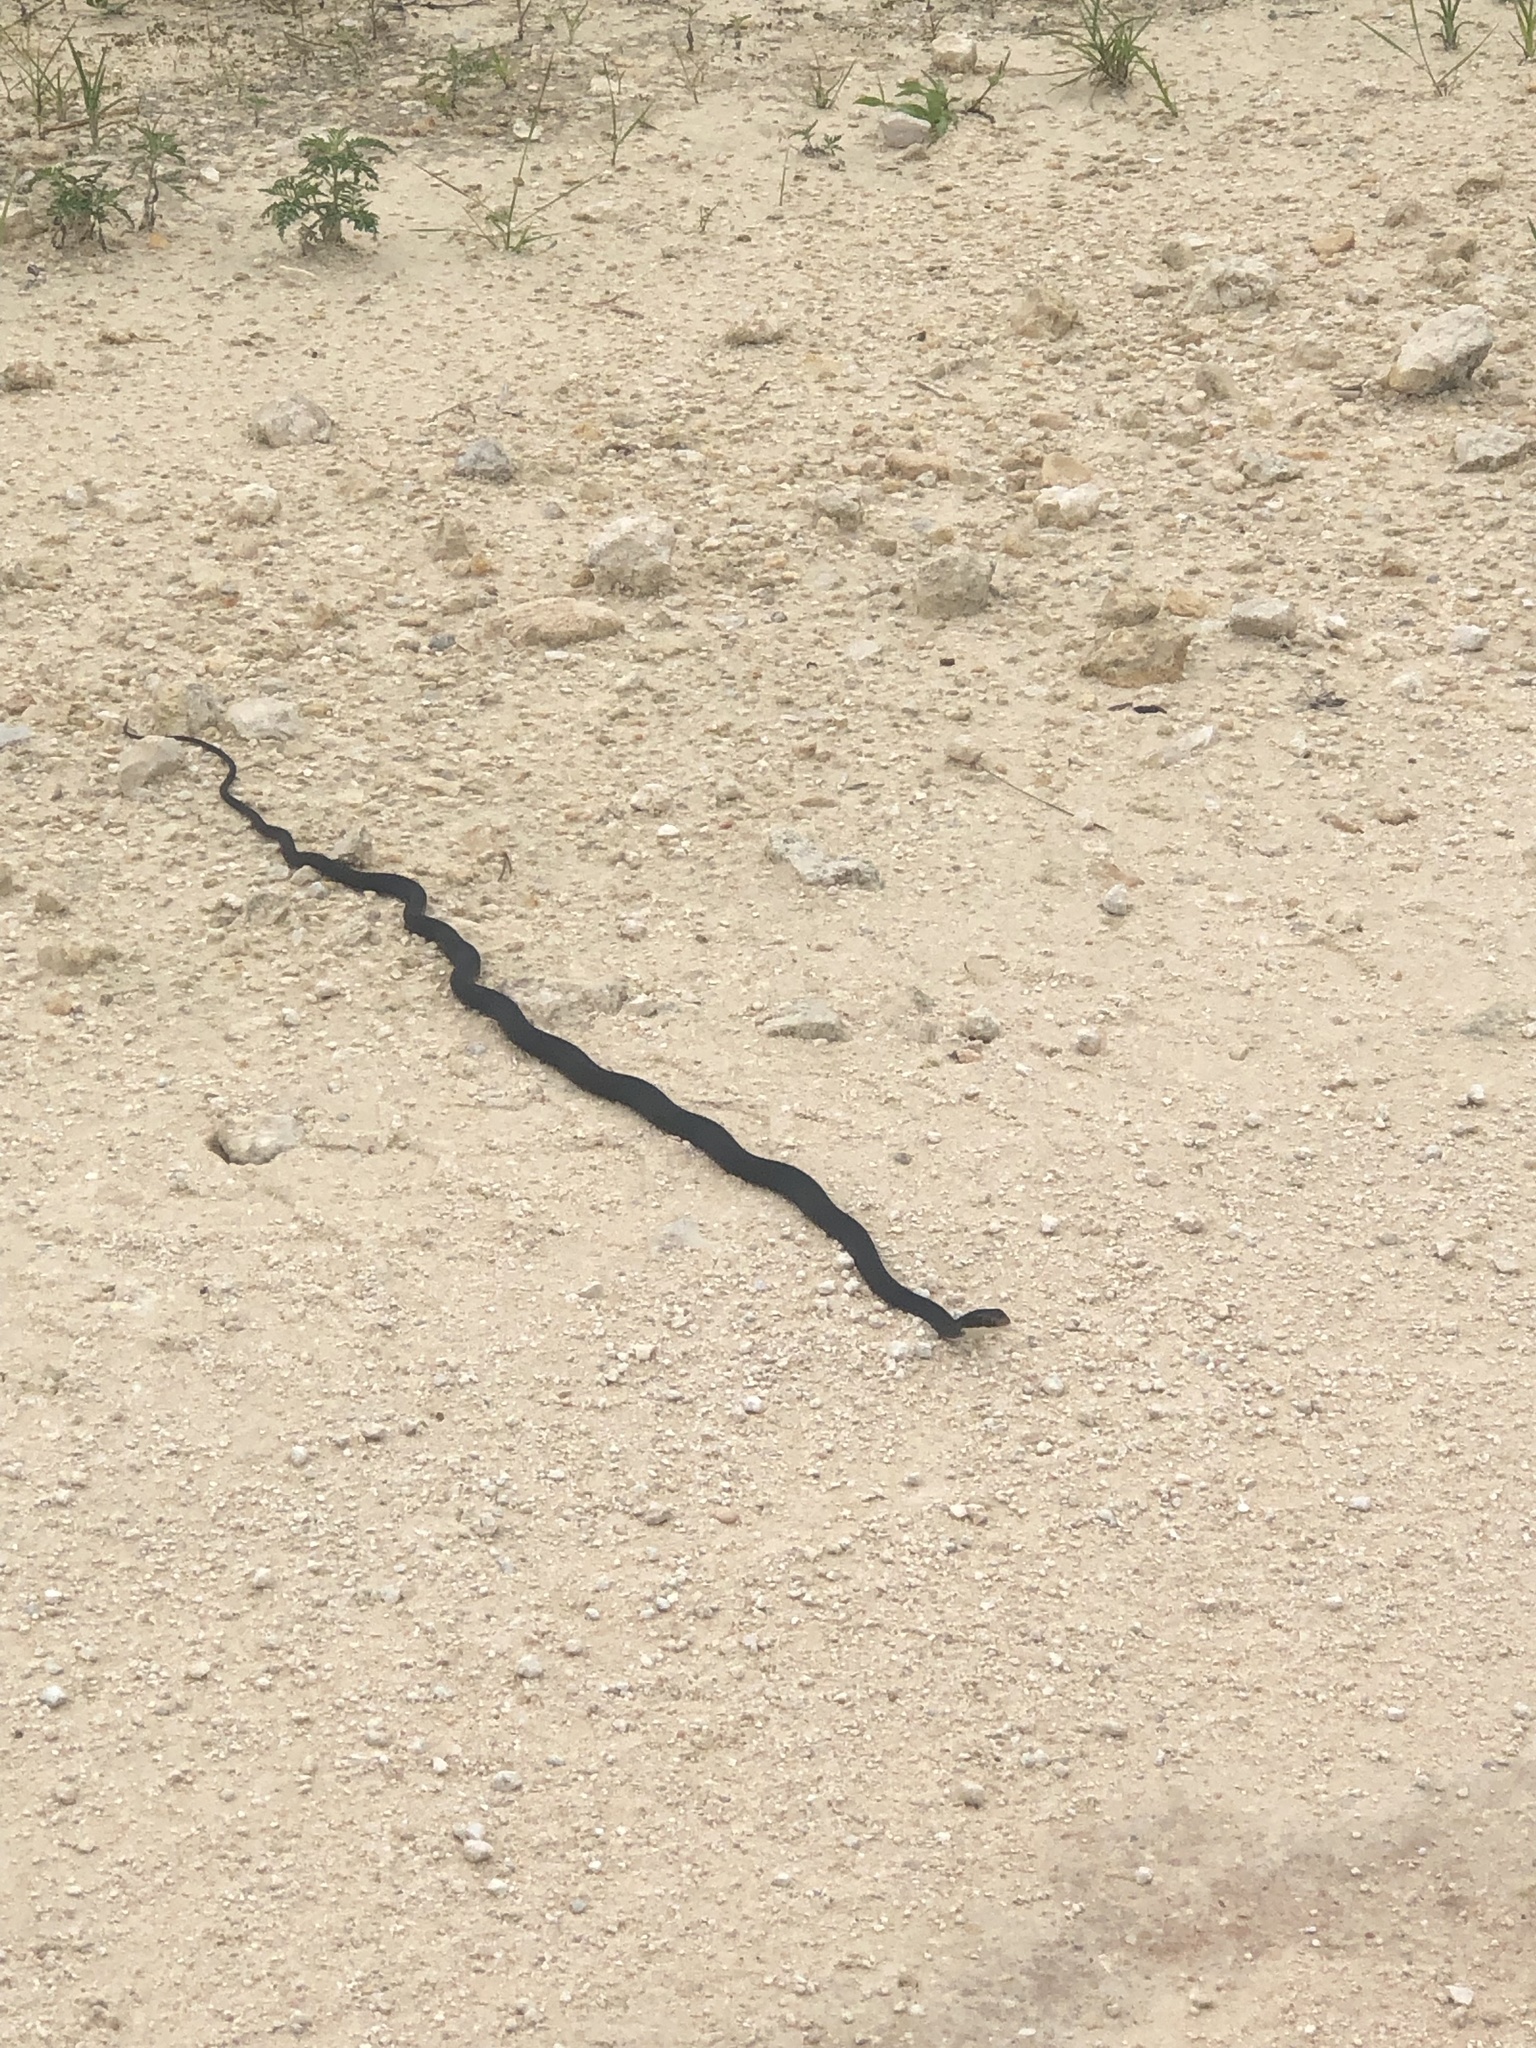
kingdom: Animalia
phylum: Chordata
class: Squamata
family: Colubridae
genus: Coluber
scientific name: Coluber constrictor
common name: Eastern racer
